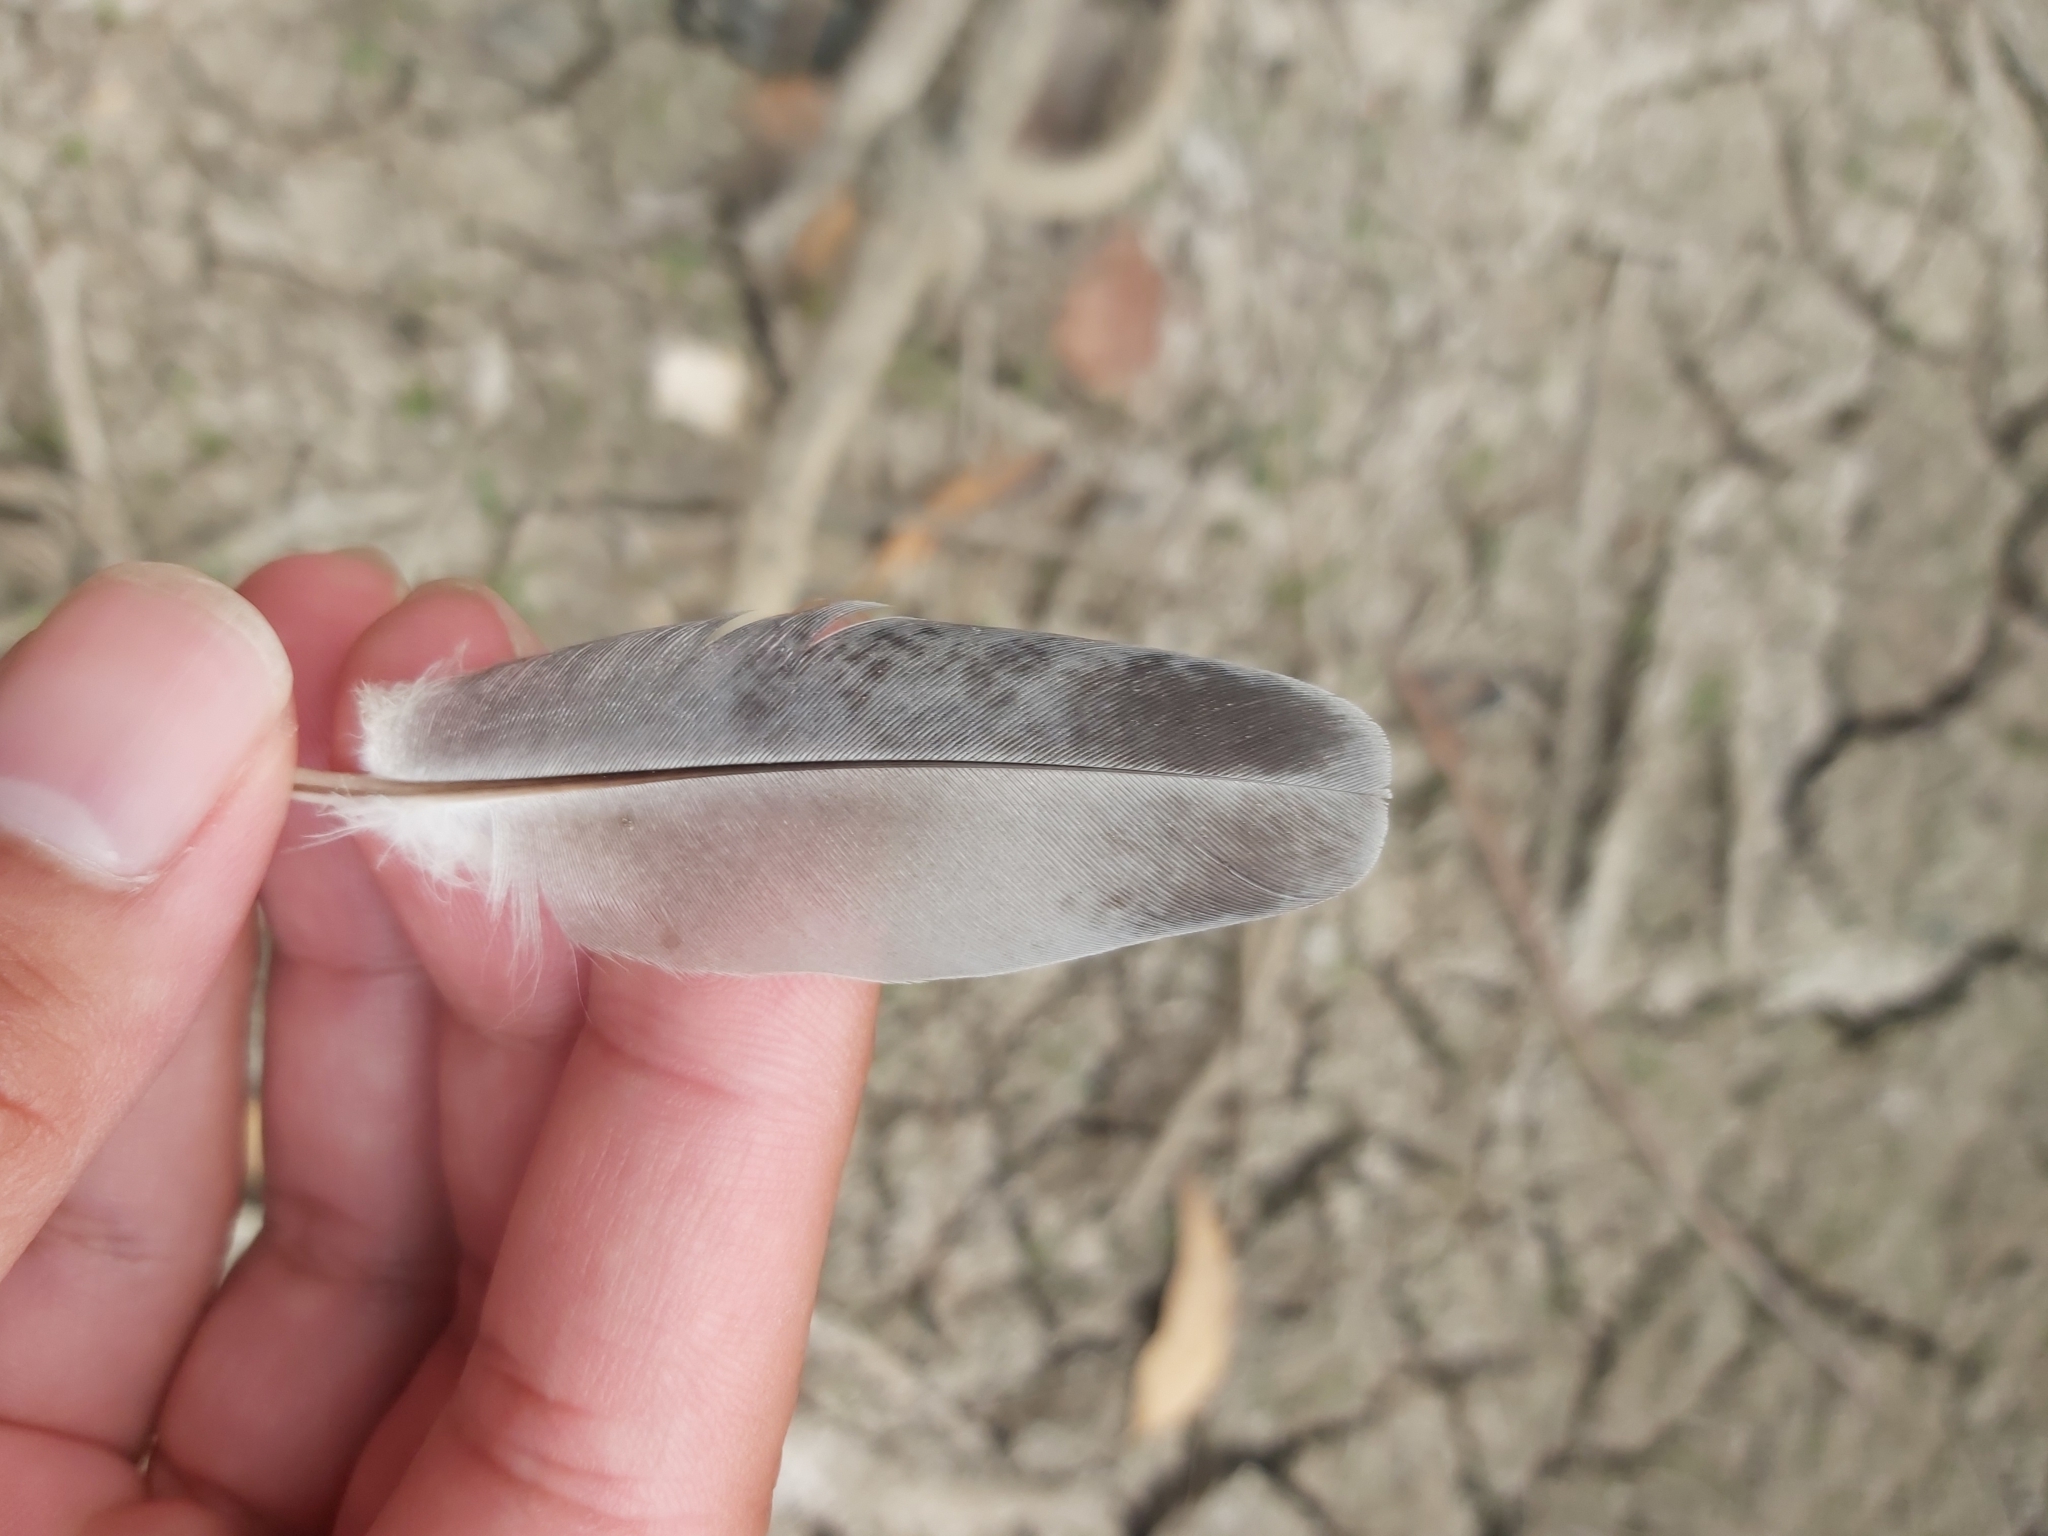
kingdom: Animalia
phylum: Chordata
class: Aves
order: Columbiformes
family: Columbidae
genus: Columba
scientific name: Columba livia
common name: Rock pigeon
